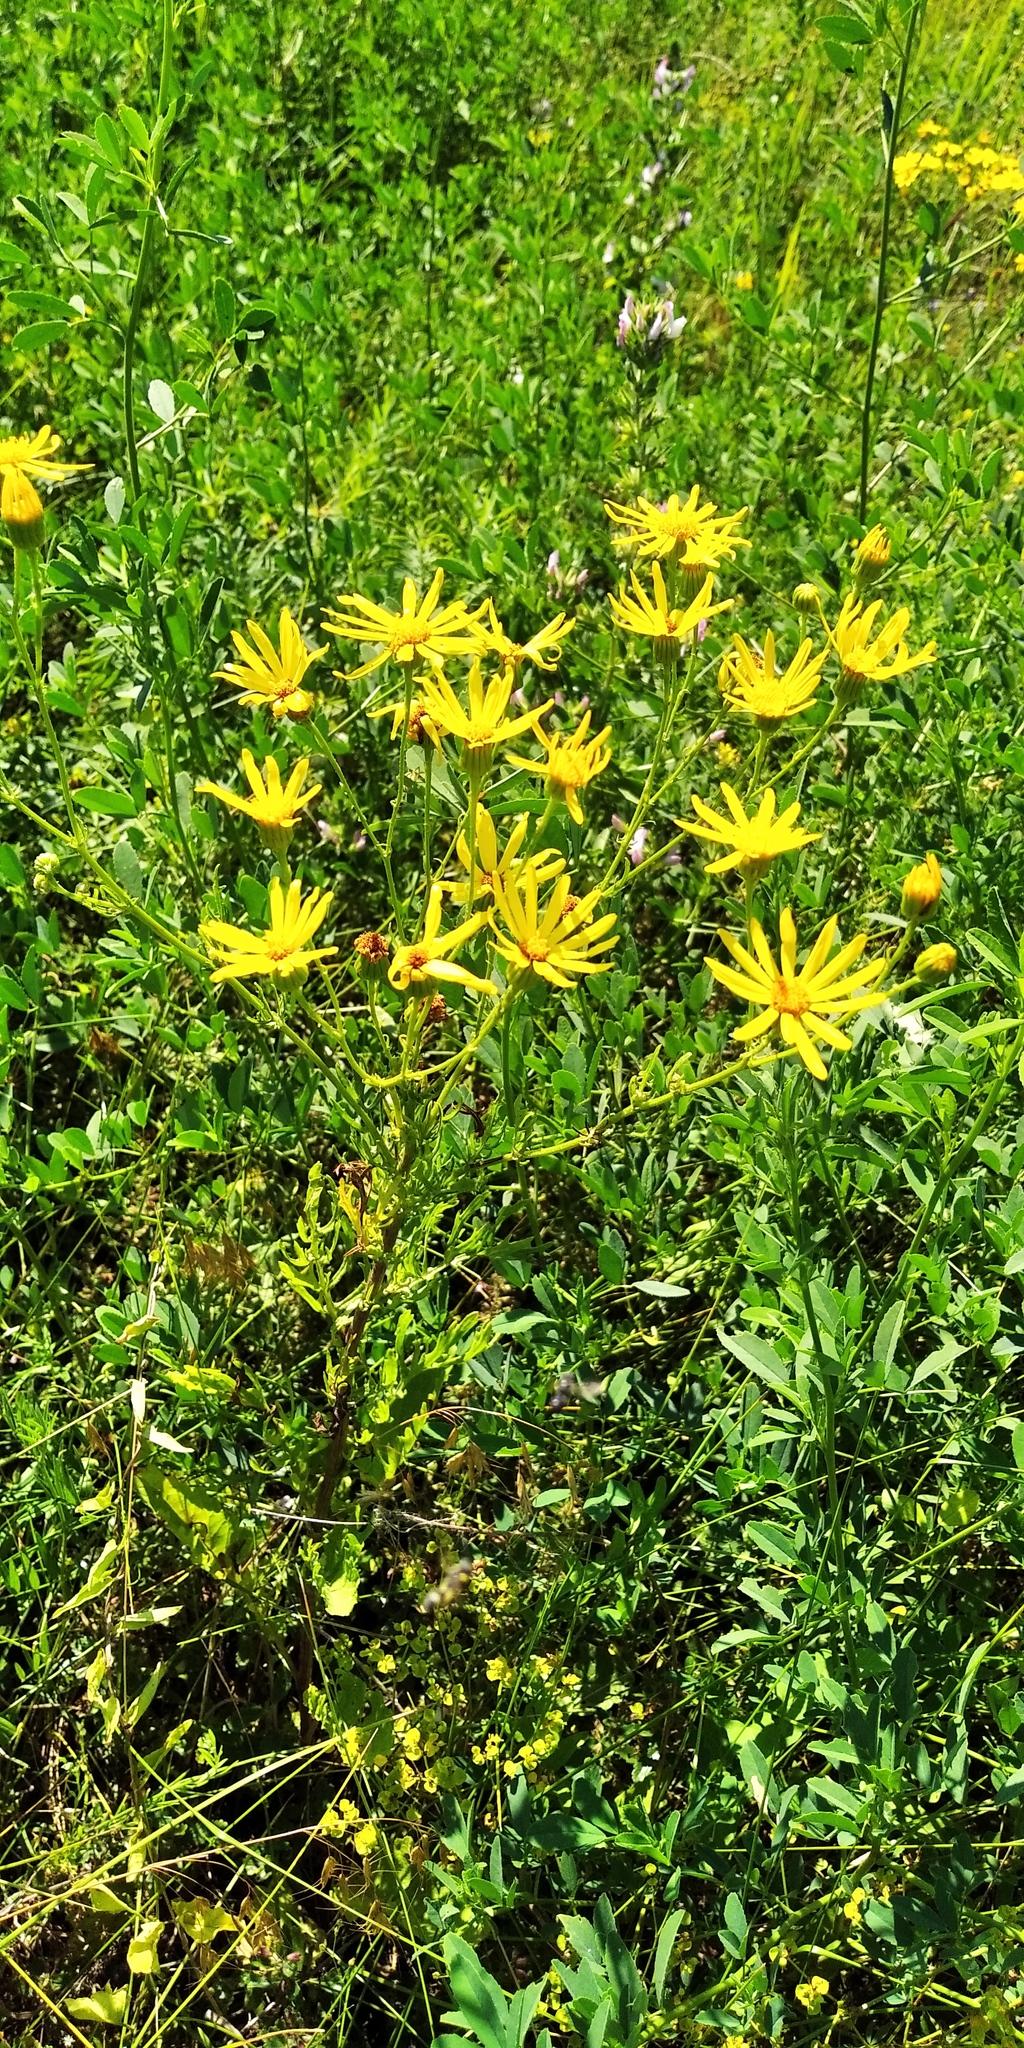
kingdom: Plantae
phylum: Tracheophyta
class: Magnoliopsida
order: Asterales
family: Asteraceae
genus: Jacobaea
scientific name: Jacobaea vulgaris
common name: Stinking willie
